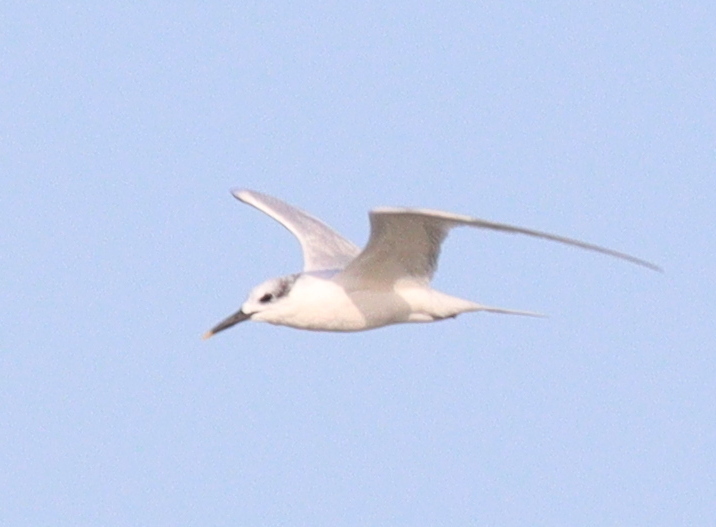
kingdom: Animalia
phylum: Chordata
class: Aves
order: Charadriiformes
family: Laridae
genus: Thalasseus
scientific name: Thalasseus sandvicensis
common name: Sandwich tern
